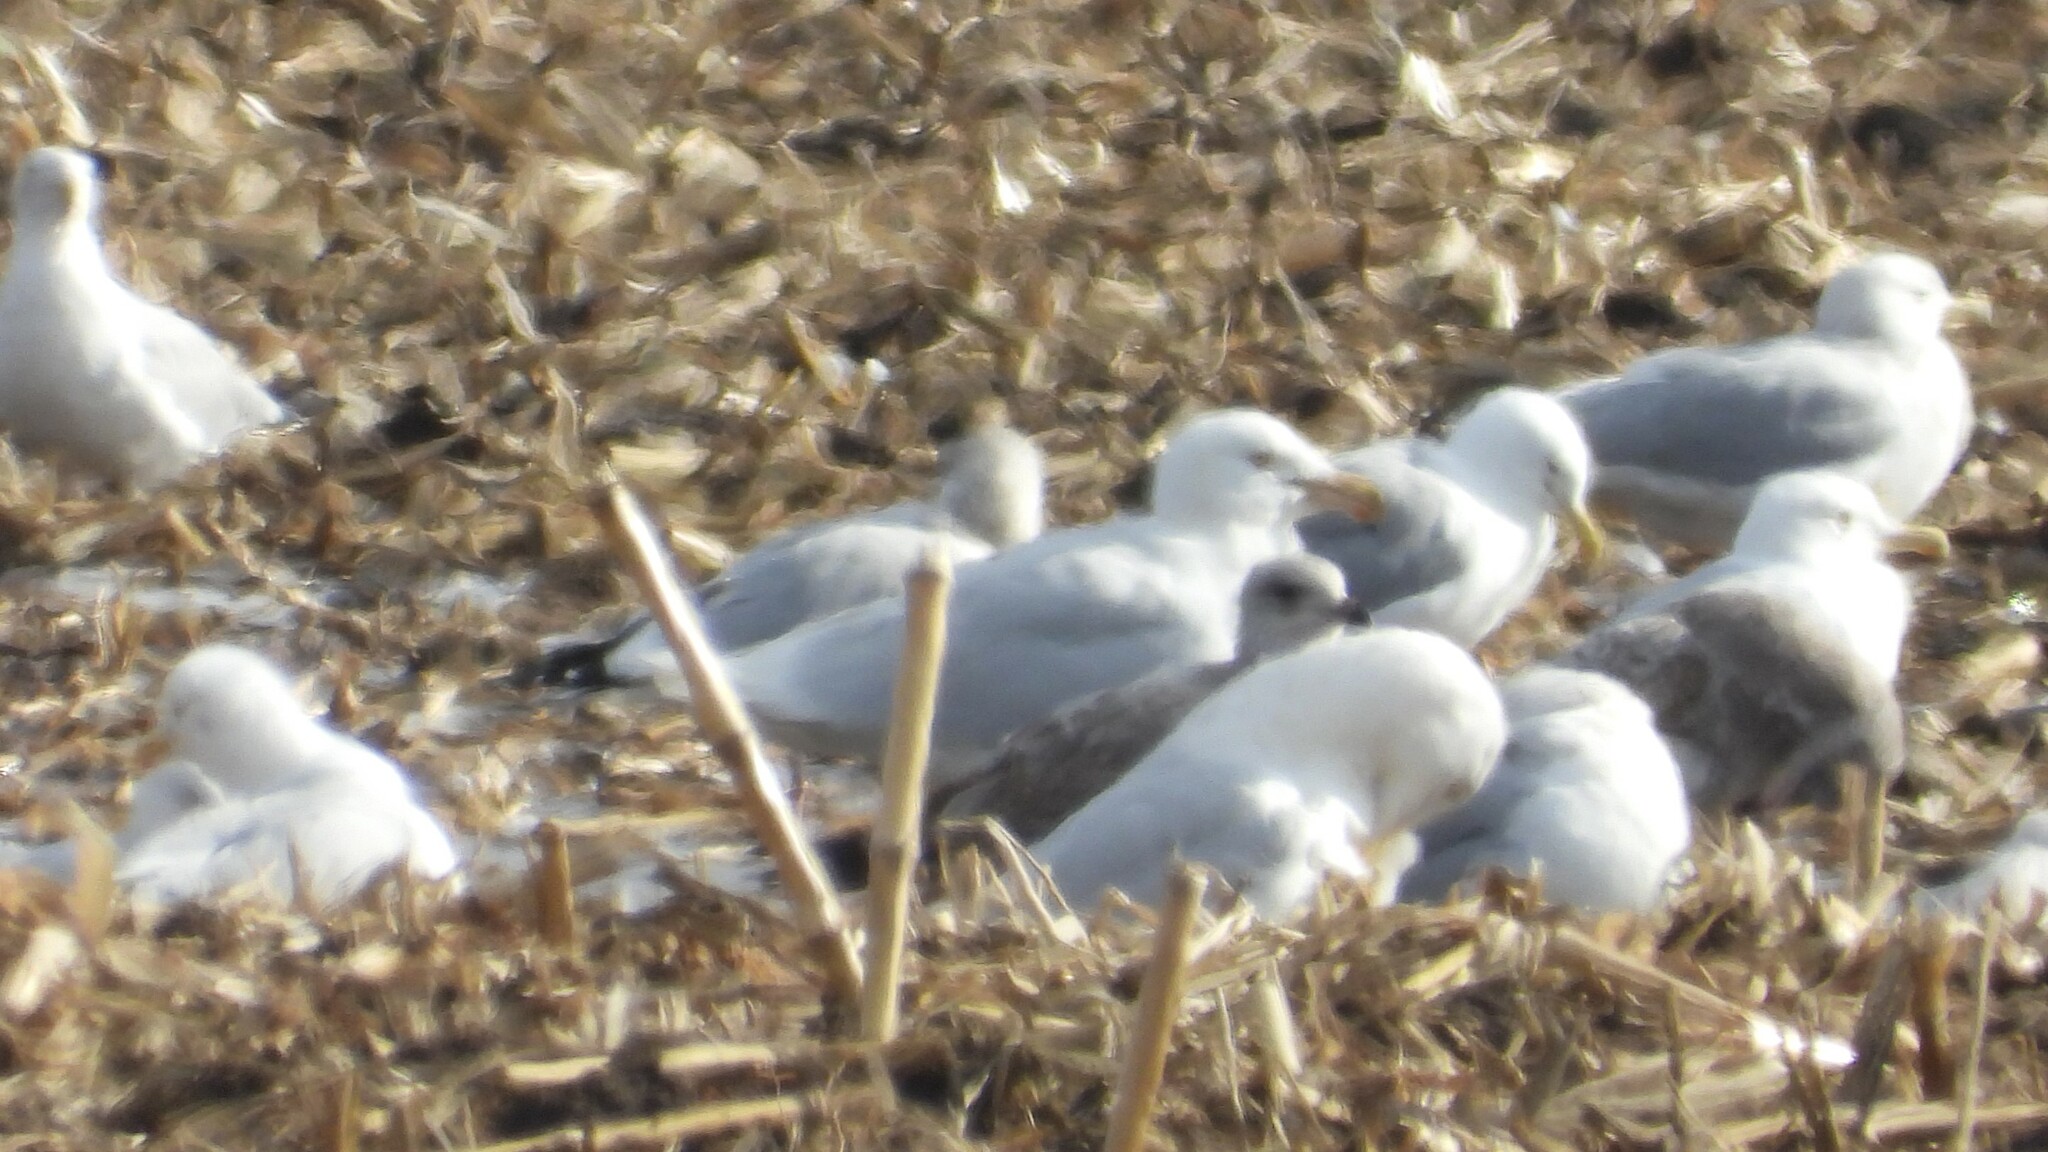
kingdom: Animalia
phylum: Chordata
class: Aves
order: Charadriiformes
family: Laridae
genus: Larus
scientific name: Larus hyperboreus
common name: Glaucous gull
